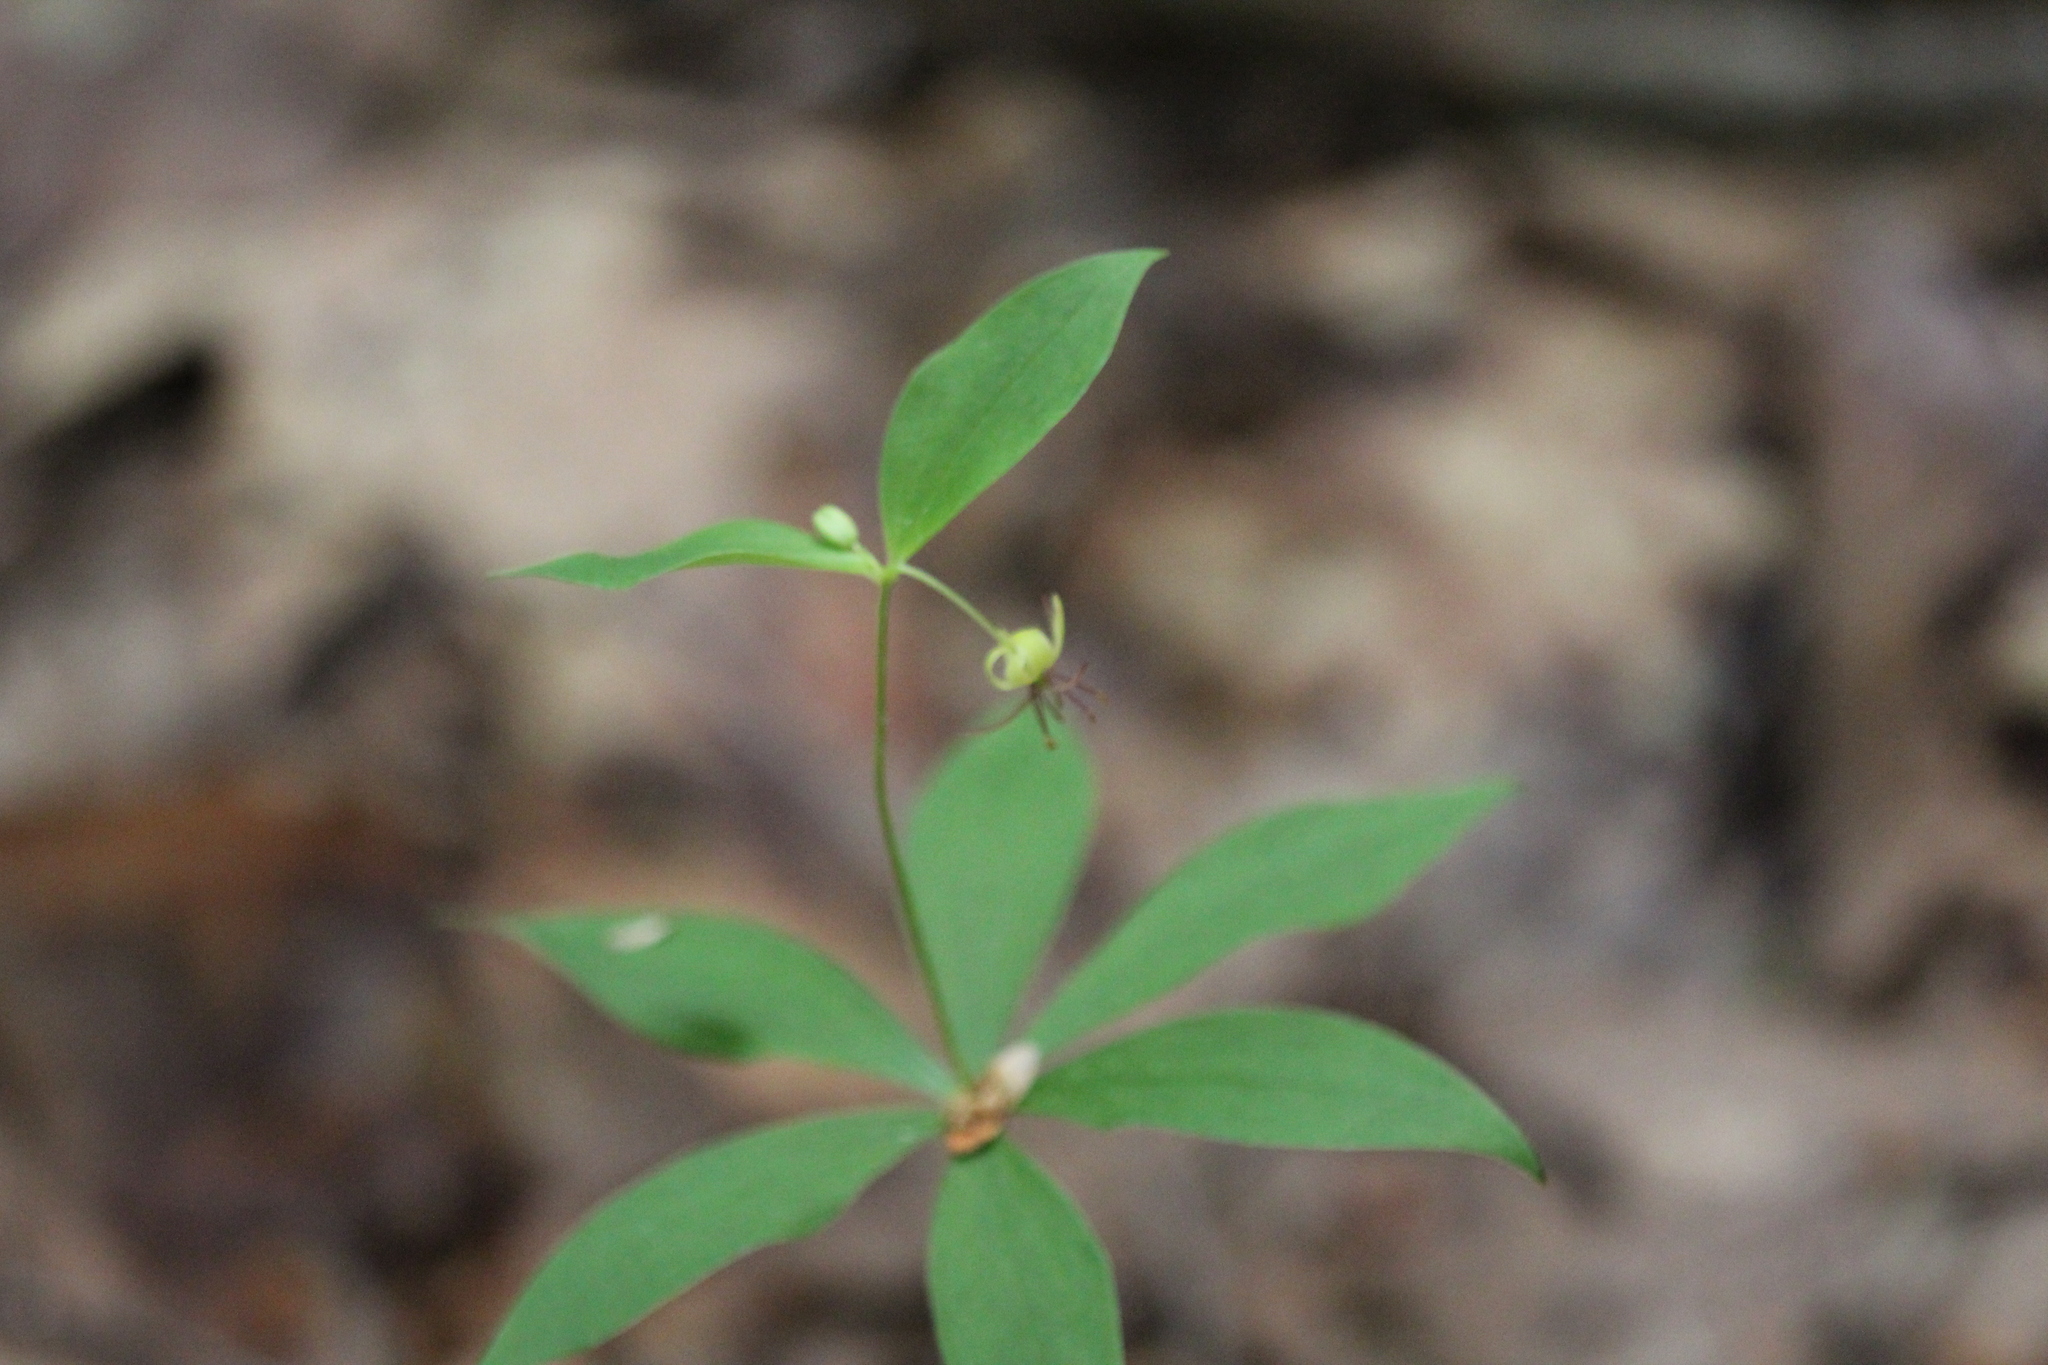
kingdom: Plantae
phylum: Tracheophyta
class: Liliopsida
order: Liliales
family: Liliaceae
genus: Medeola
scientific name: Medeola virginiana
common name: Indian cucumber-root
